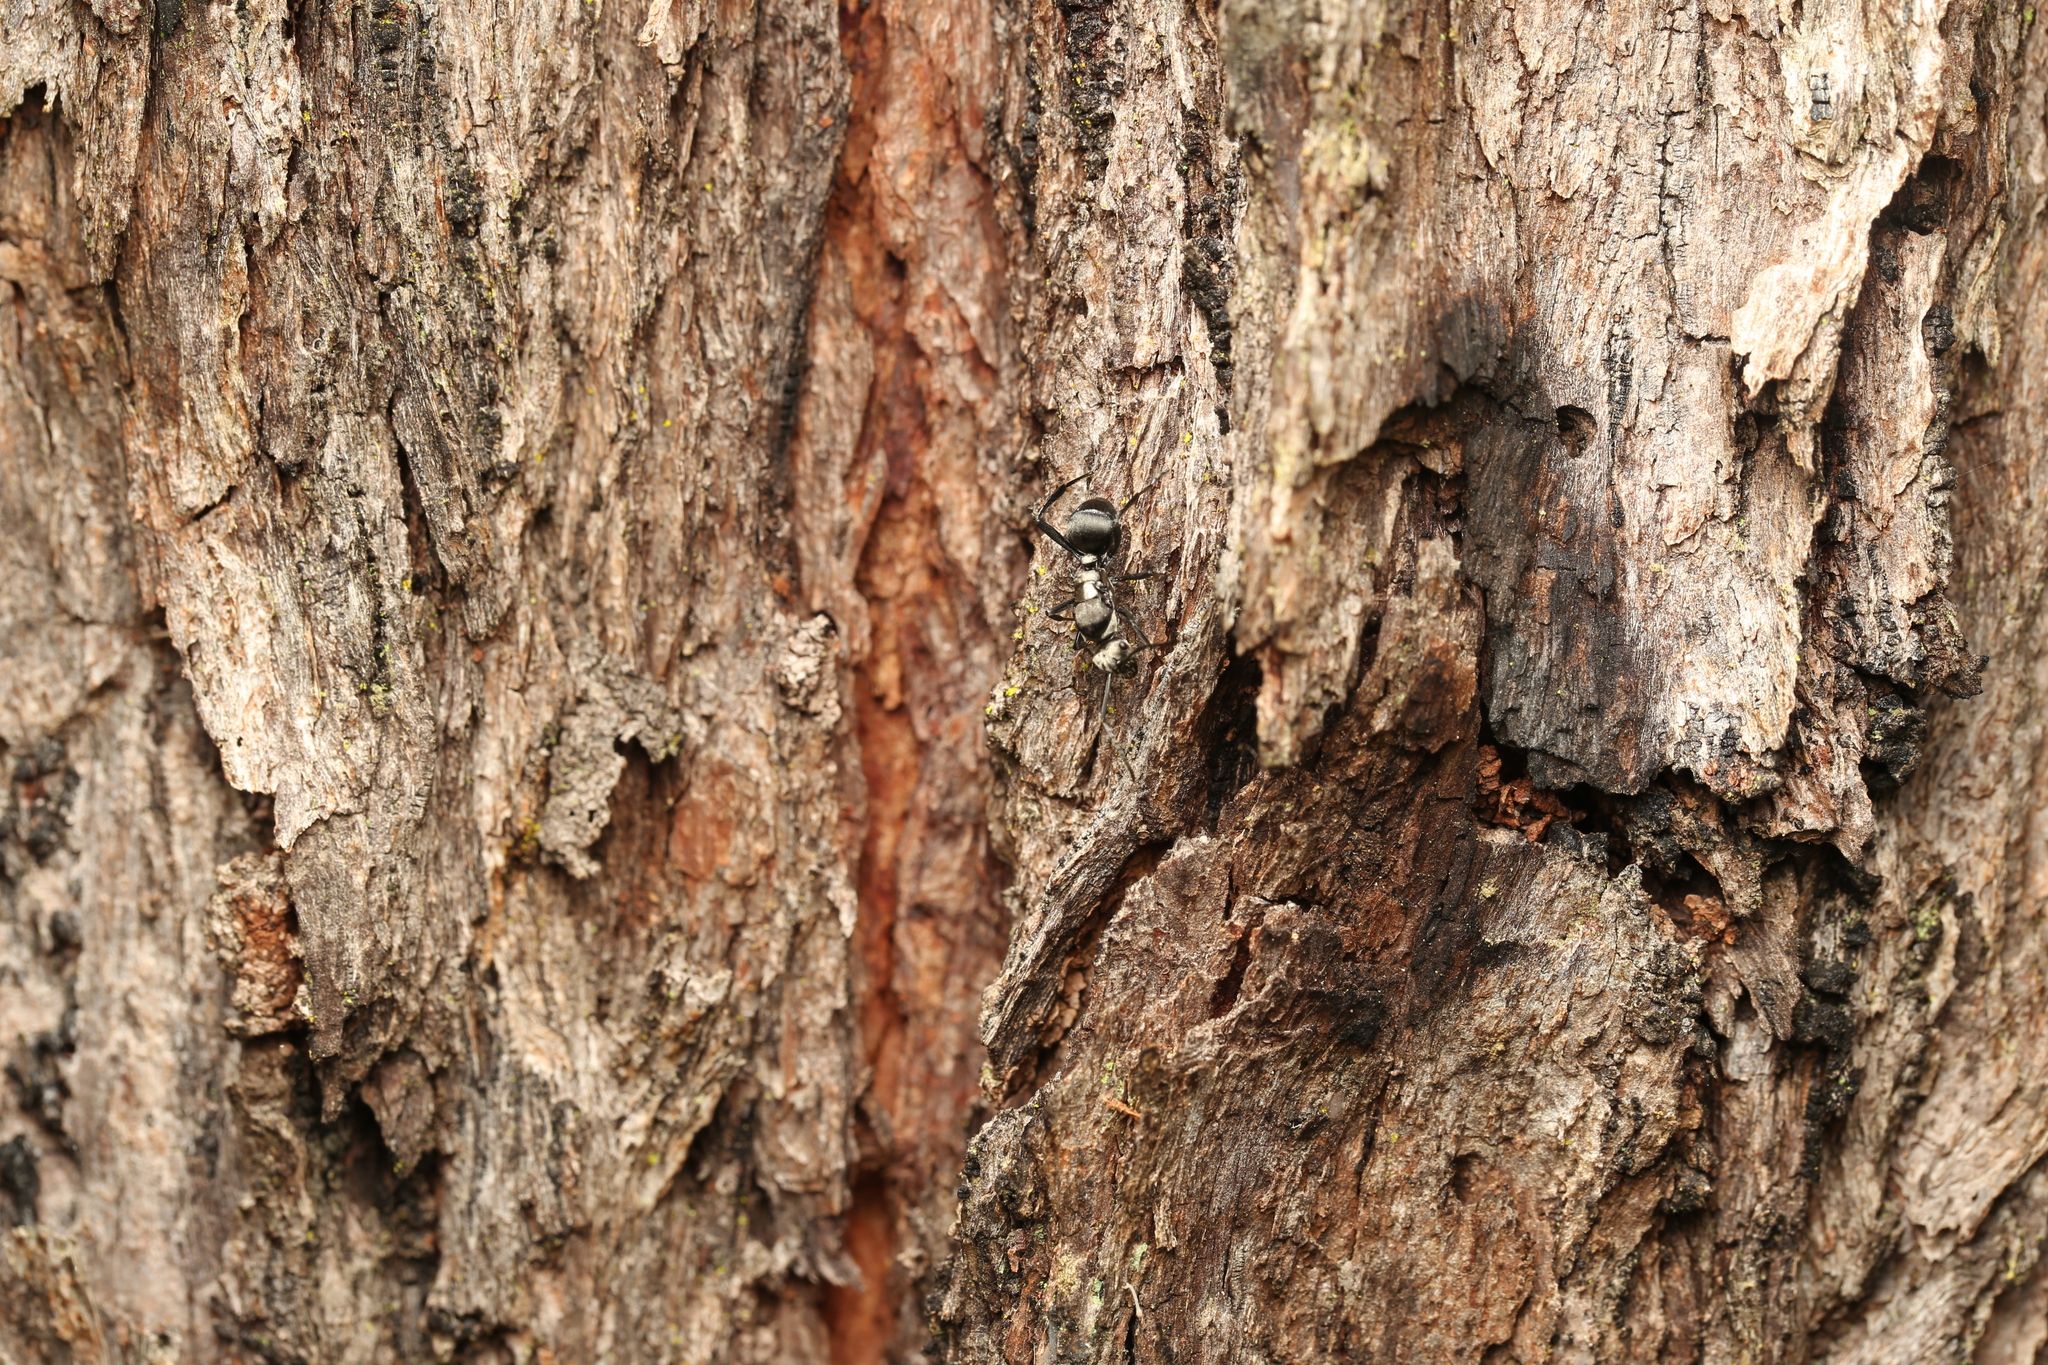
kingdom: Animalia
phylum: Arthropoda
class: Insecta
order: Hymenoptera
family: Formicidae
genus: Polyrhachis
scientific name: Polyrhachis daemeli
